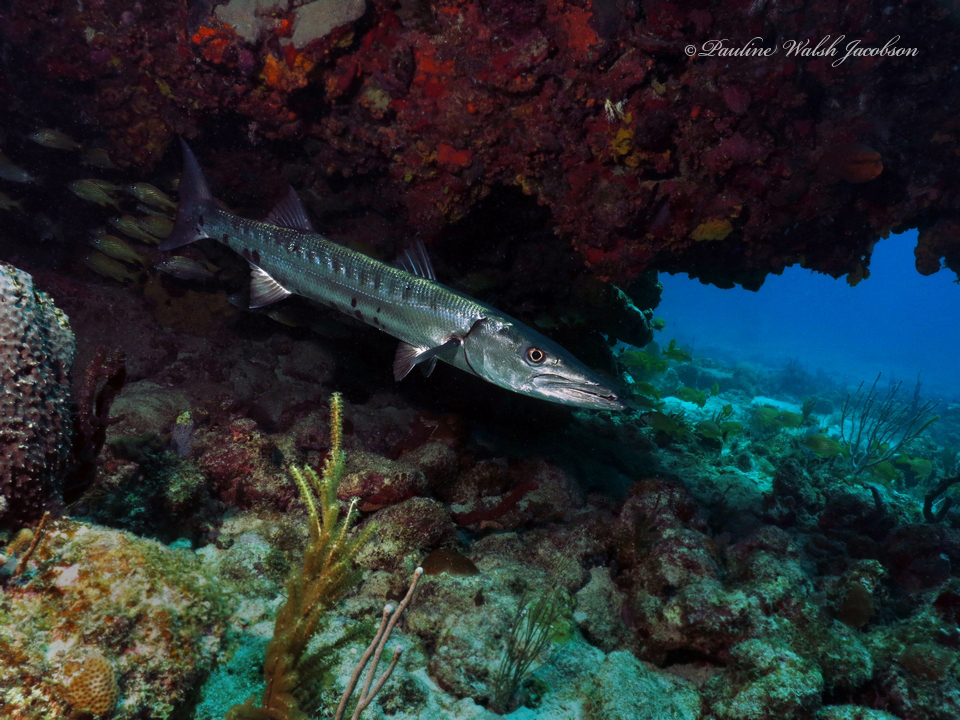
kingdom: Animalia
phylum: Chordata
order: Perciformes
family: Sphyraenidae
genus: Sphyraena
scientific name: Sphyraena barracuda
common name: Great barracuda
